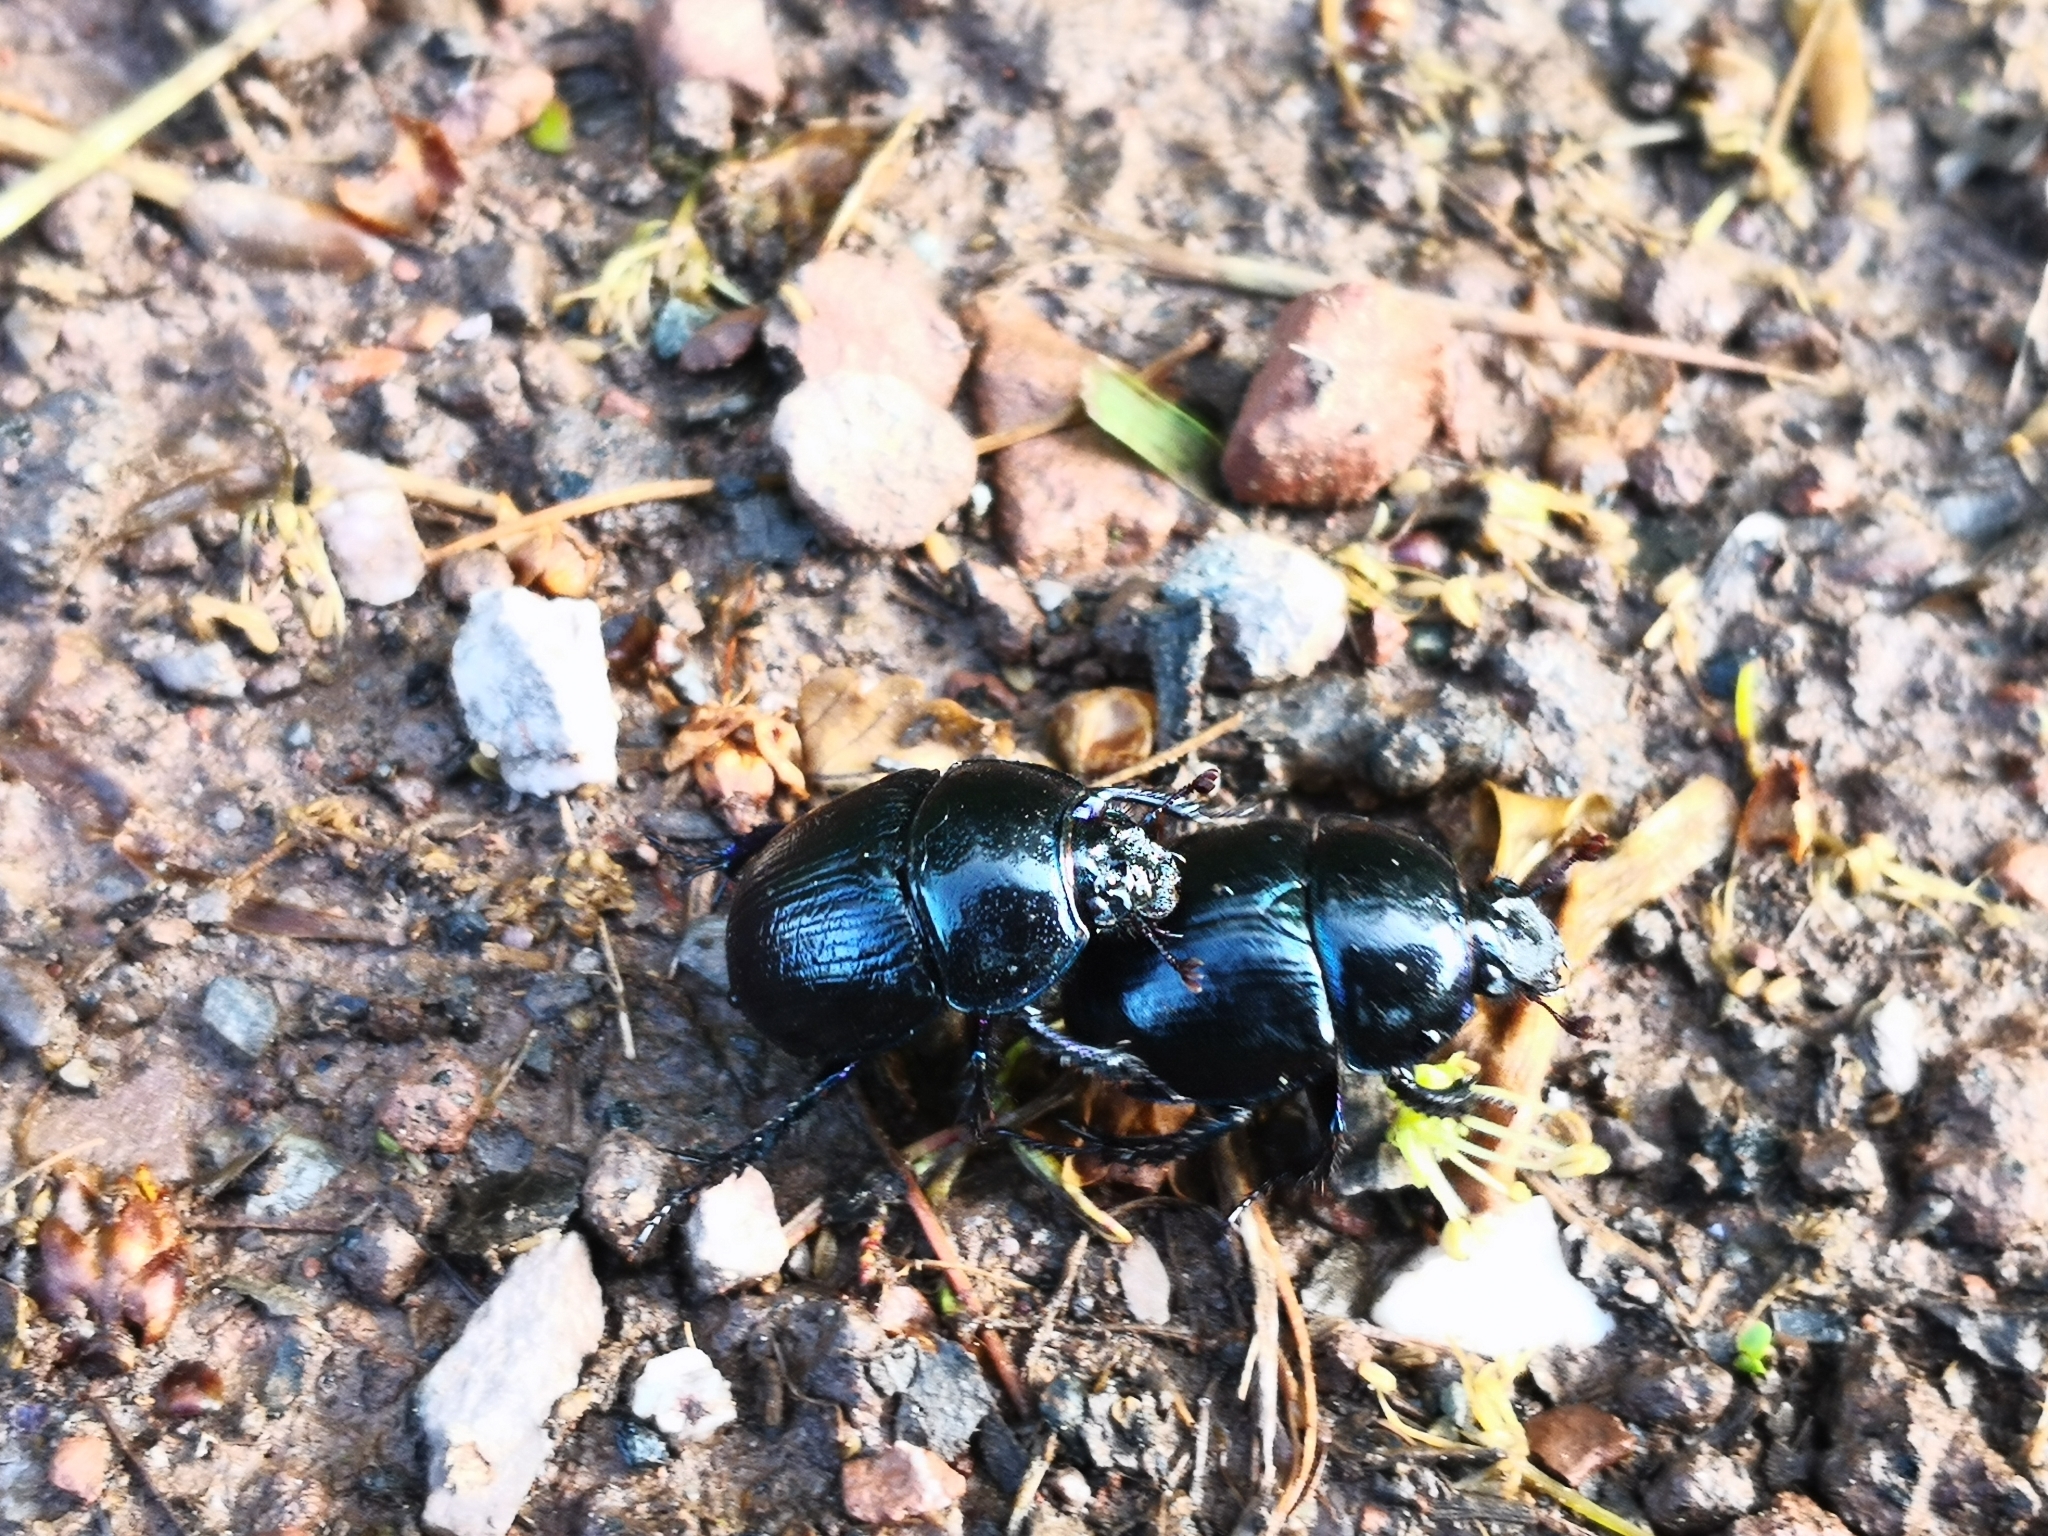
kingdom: Animalia
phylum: Arthropoda
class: Insecta
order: Coleoptera
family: Geotrupidae
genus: Anoplotrupes
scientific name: Anoplotrupes stercorosus
